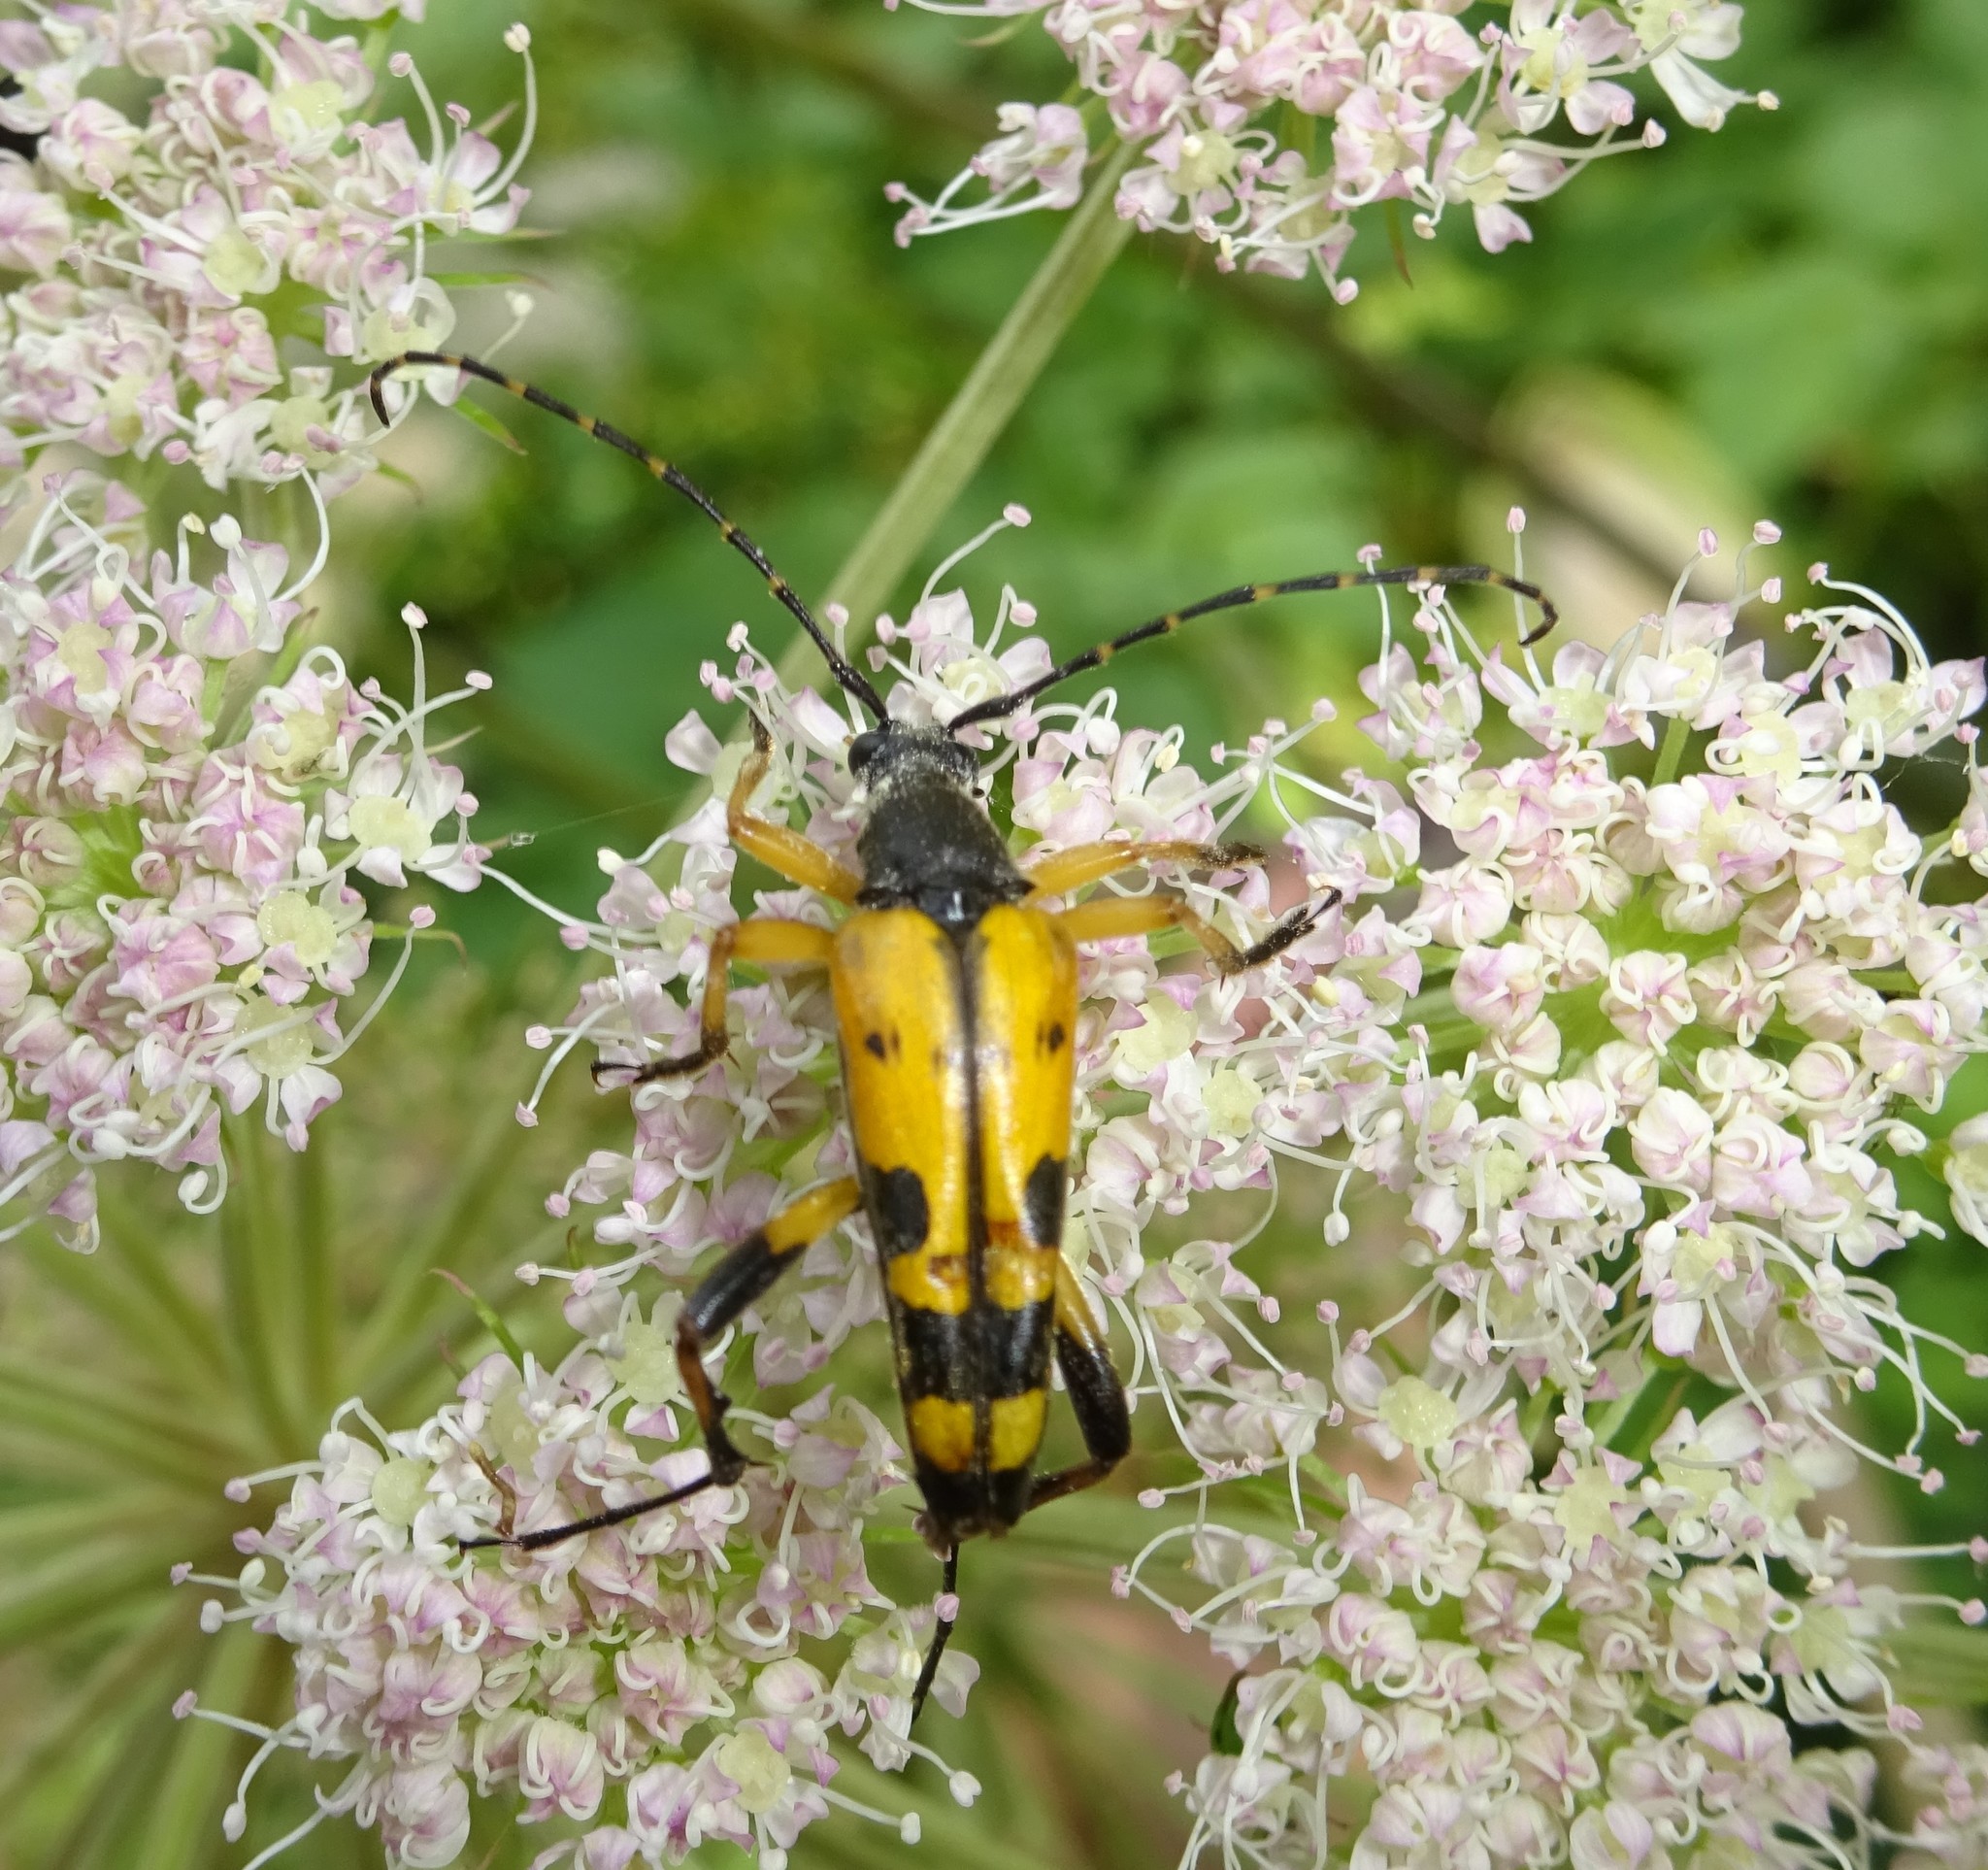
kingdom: Animalia
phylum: Arthropoda
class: Insecta
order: Coleoptera
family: Cerambycidae
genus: Rutpela
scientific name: Rutpela maculata
